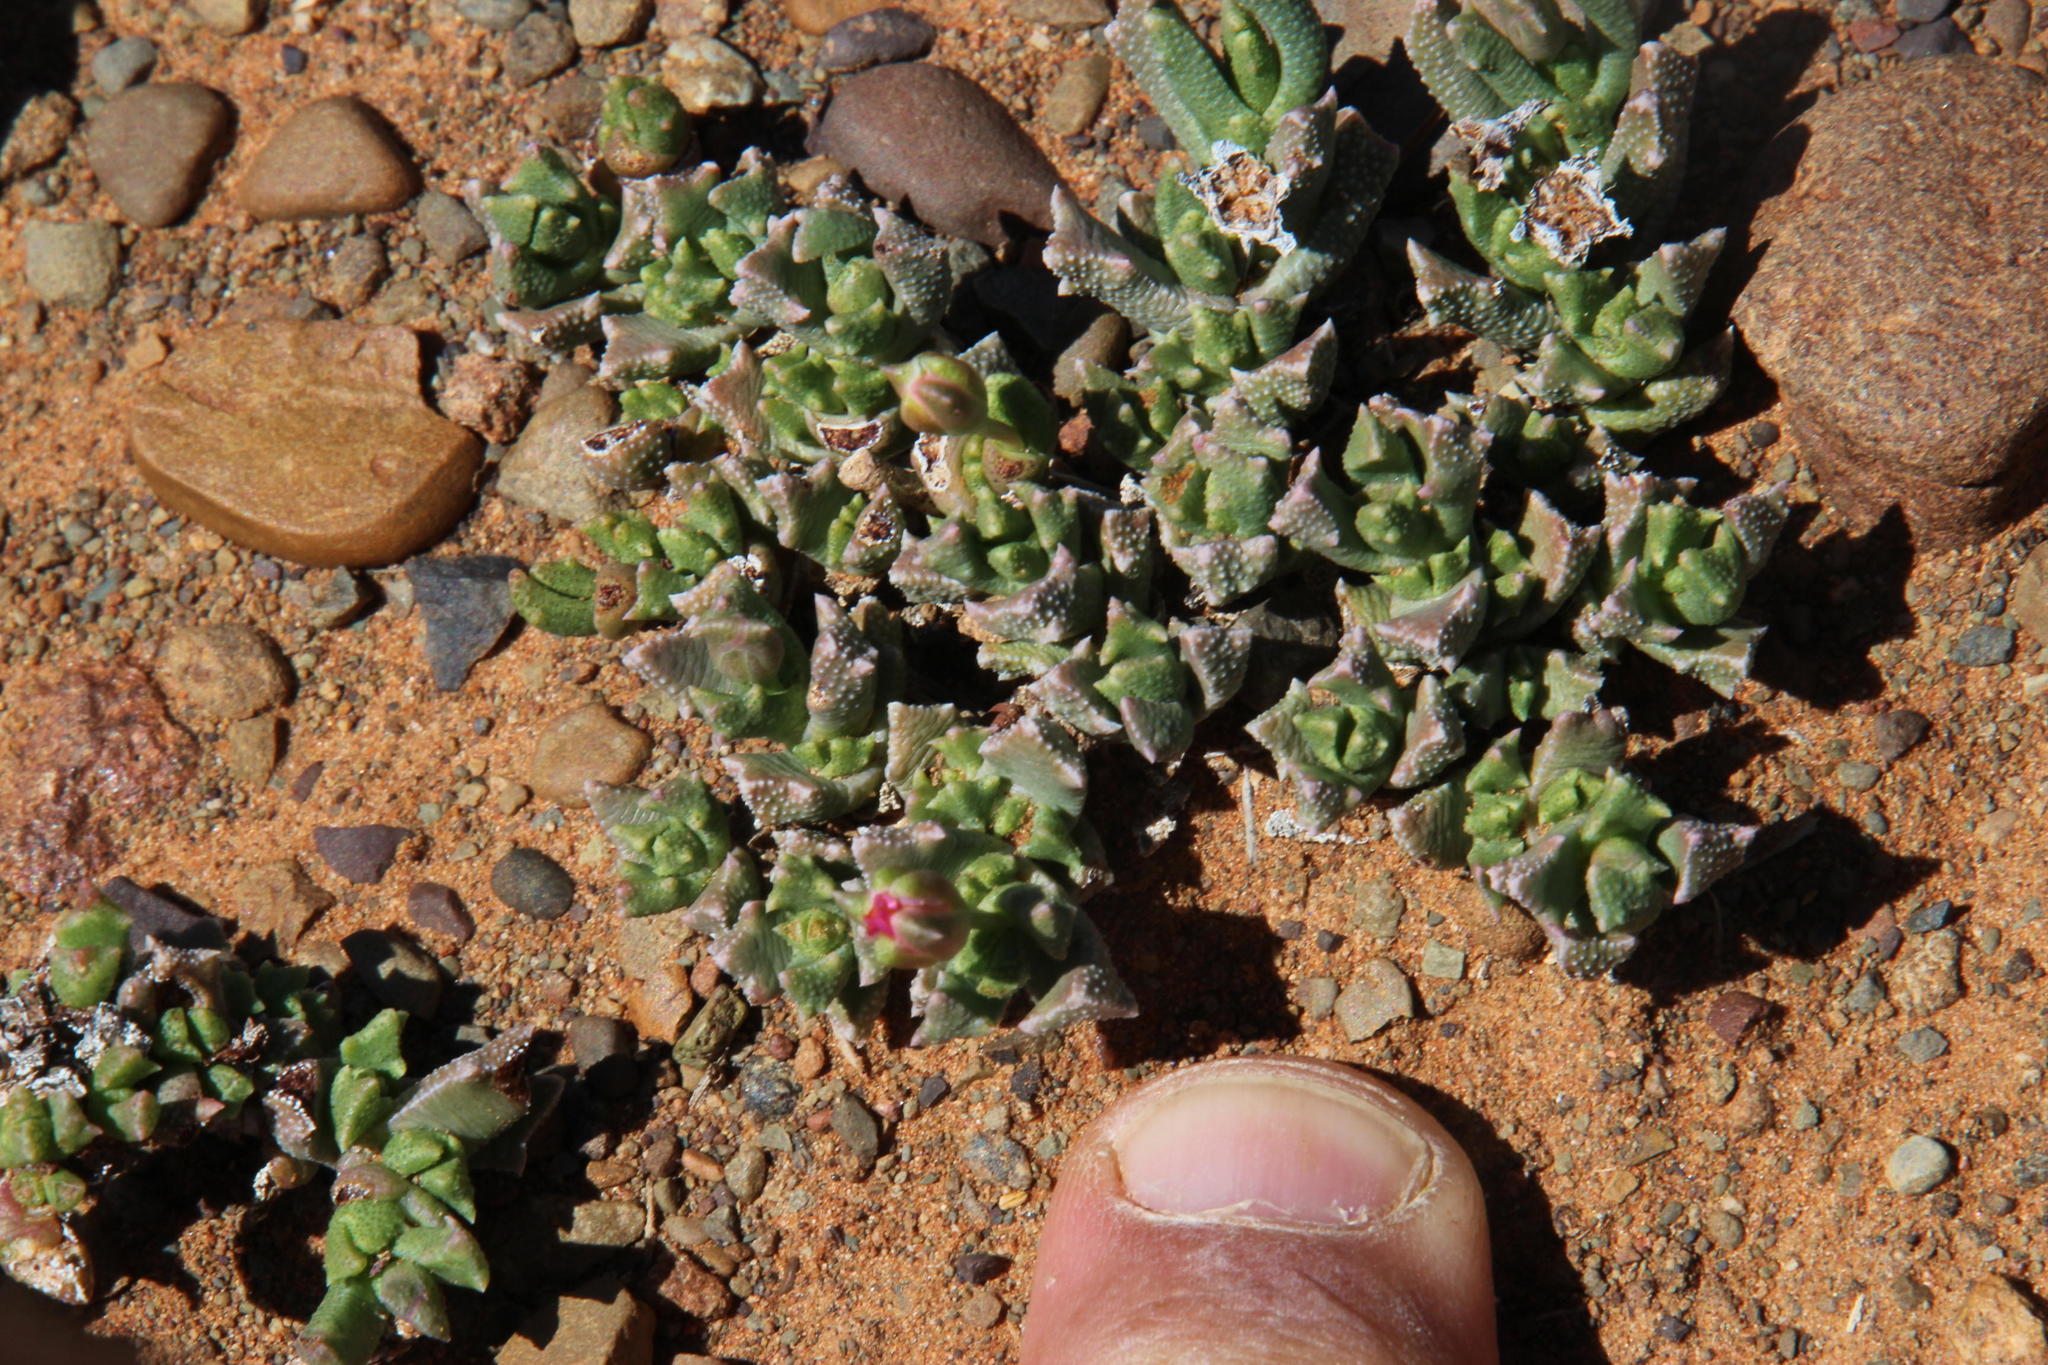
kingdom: Plantae
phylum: Tracheophyta
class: Magnoliopsida
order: Caryophyllales
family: Aizoaceae
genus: Dracophilus
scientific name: Dracophilus Chasmatophyllum musculinum
